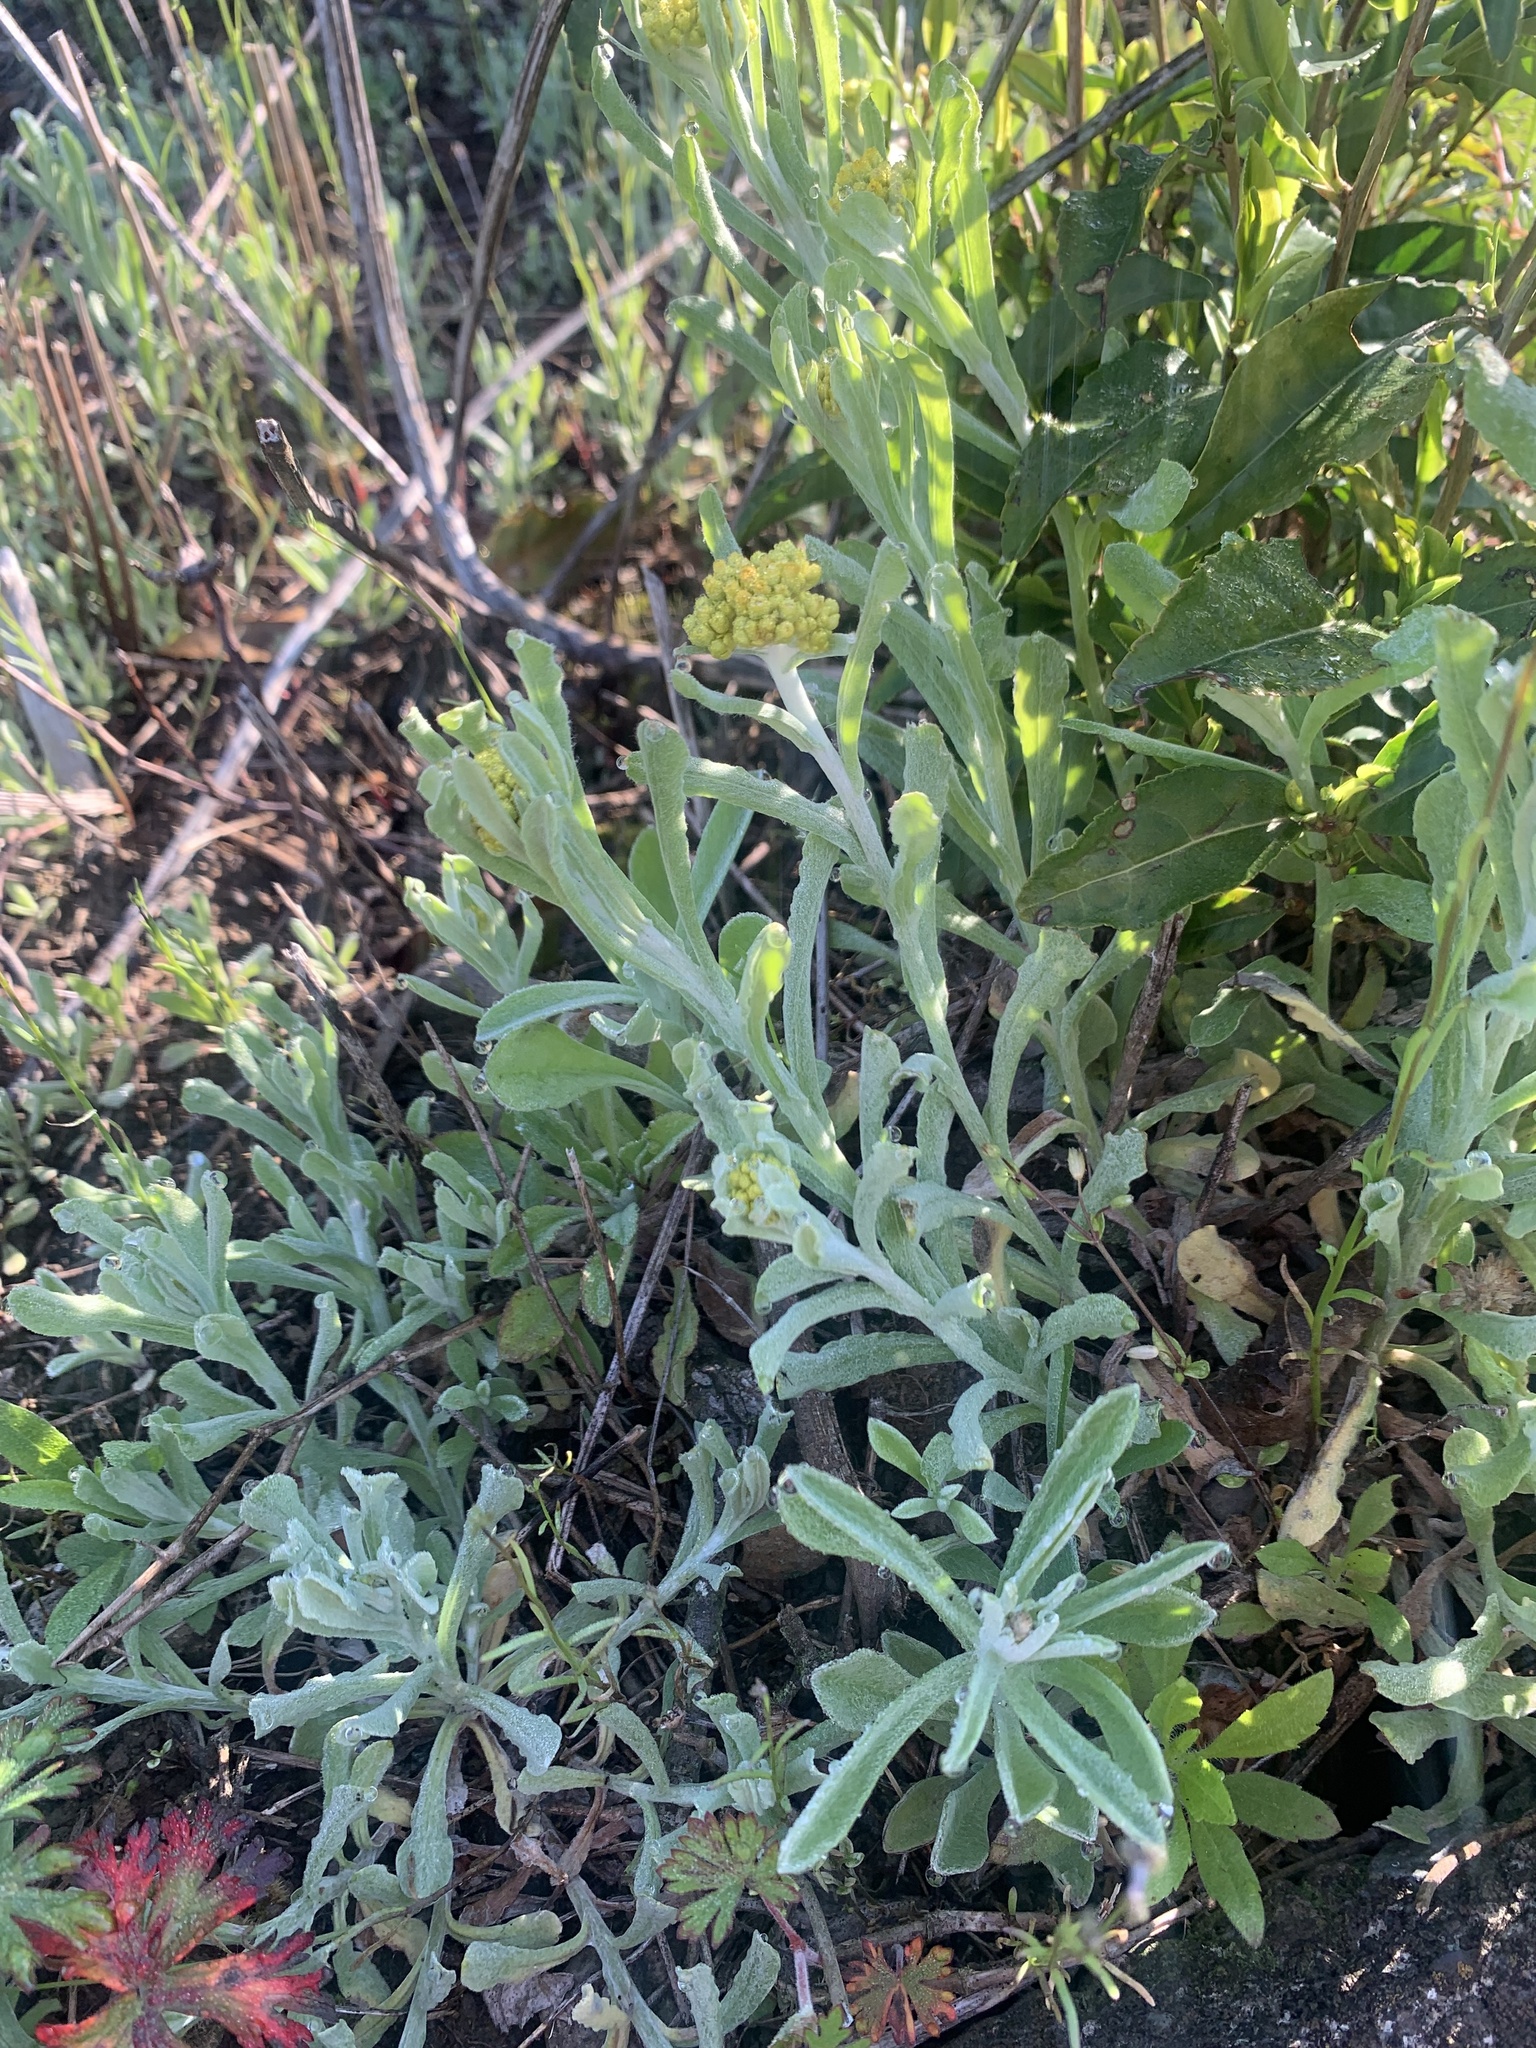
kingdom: Plantae
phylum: Tracheophyta
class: Magnoliopsida
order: Asterales
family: Asteraceae
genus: Pseudognaphalium
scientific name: Pseudognaphalium affine
